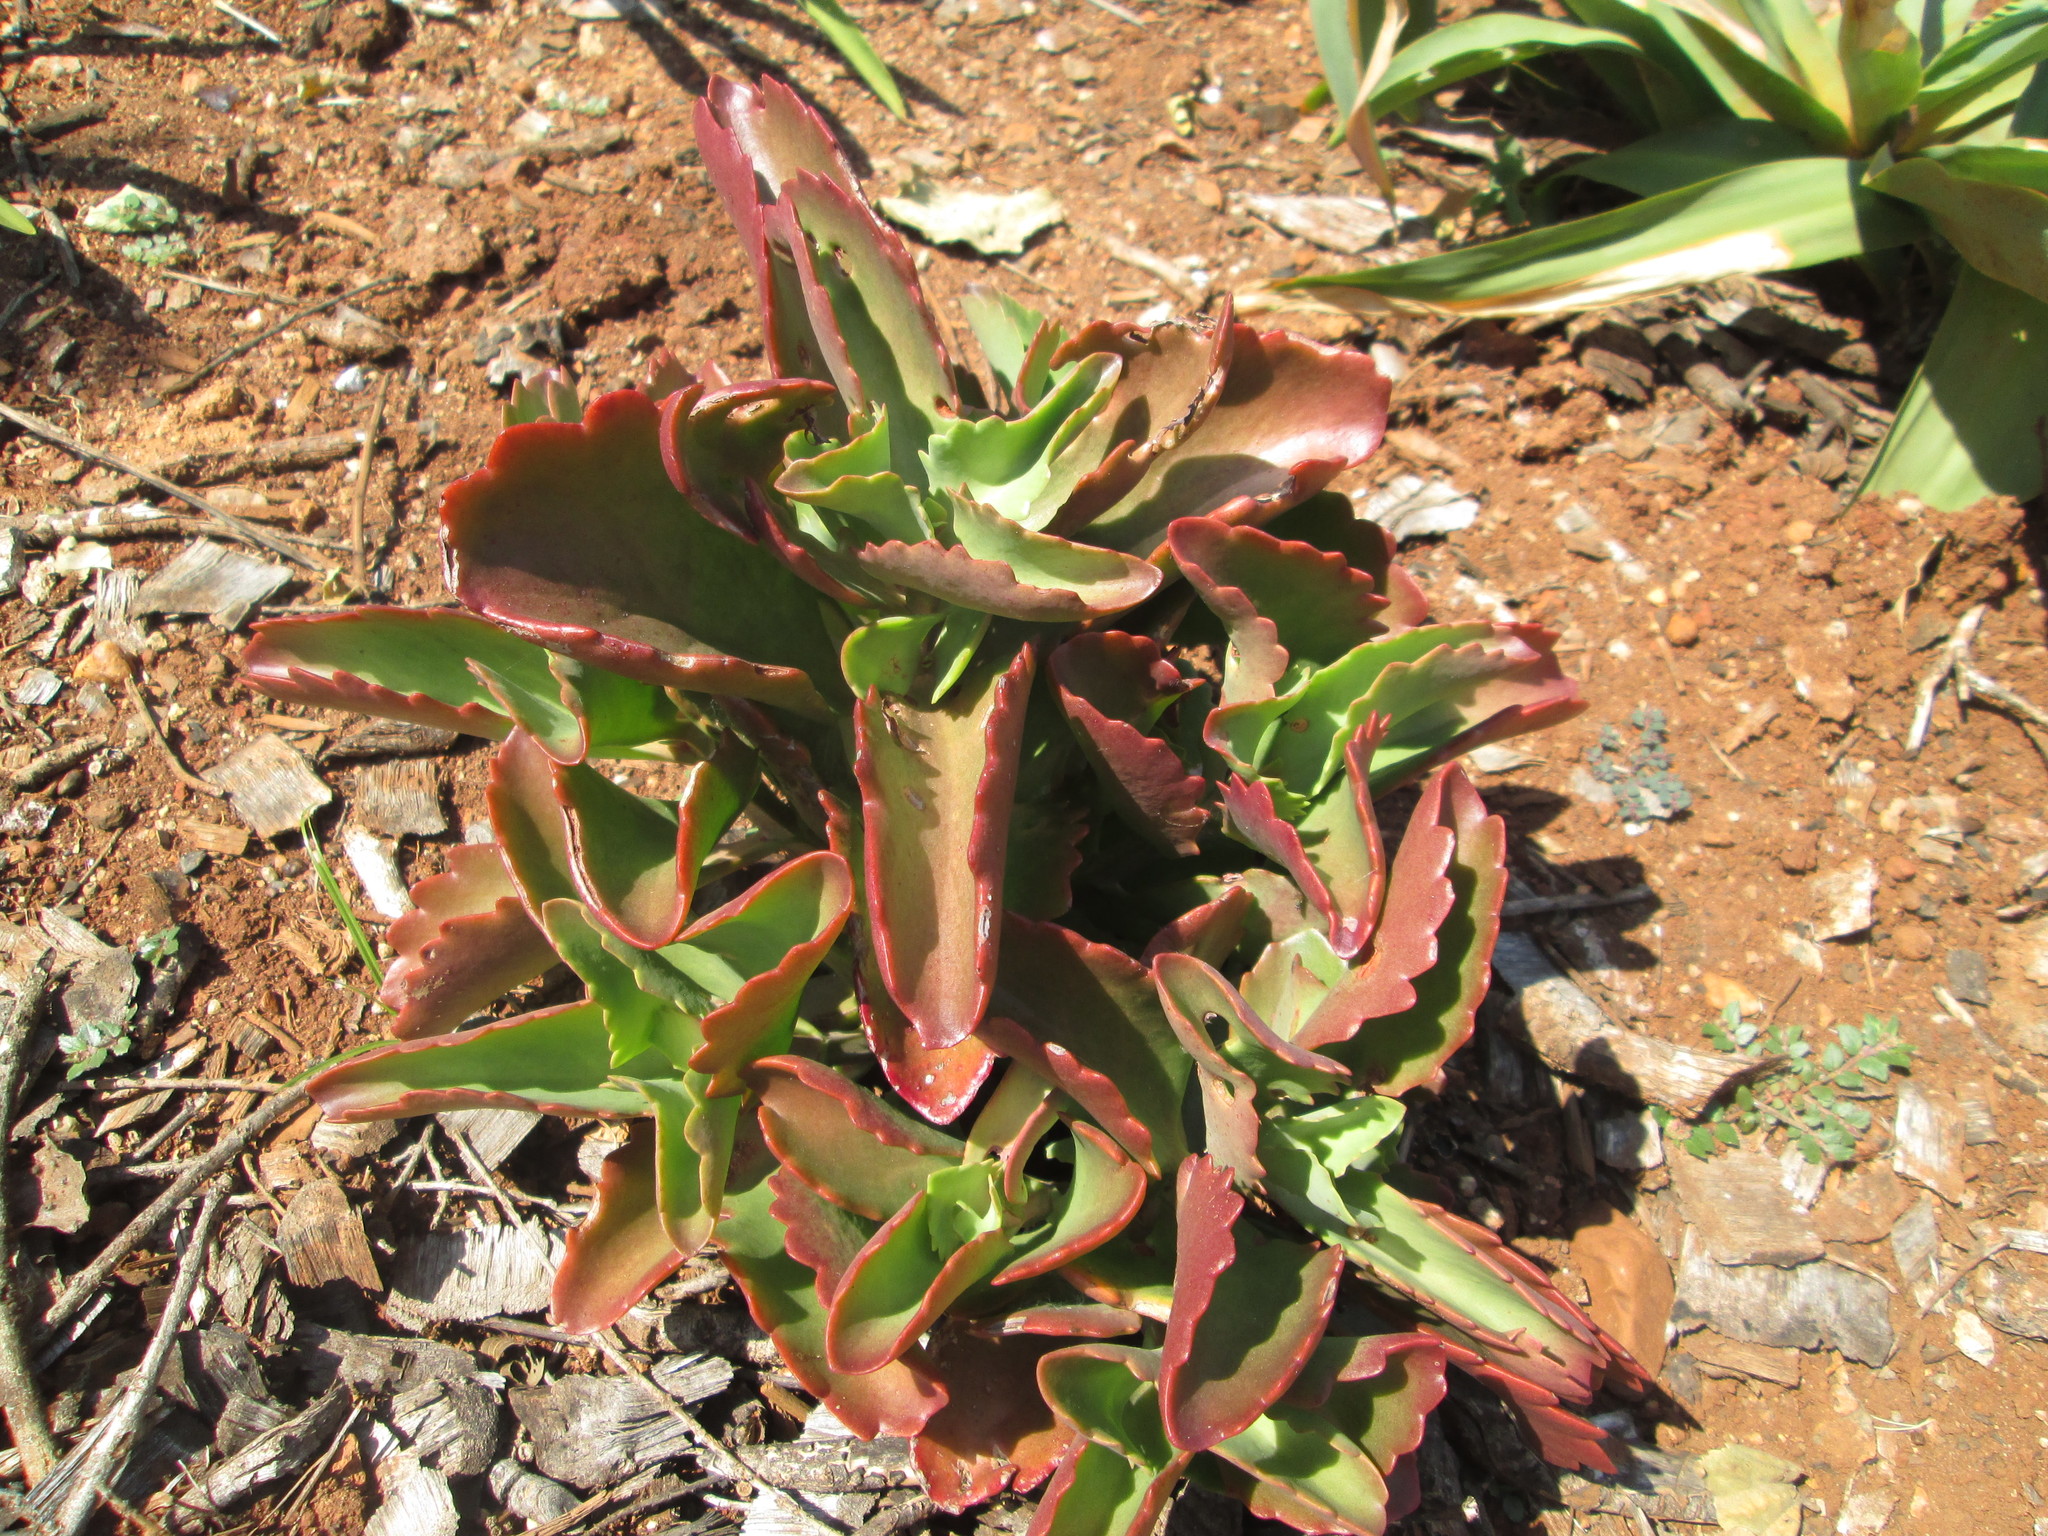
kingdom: Plantae
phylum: Tracheophyta
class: Magnoliopsida
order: Saxifragales
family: Crassulaceae
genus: Kalanchoe
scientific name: Kalanchoe sexangularis
